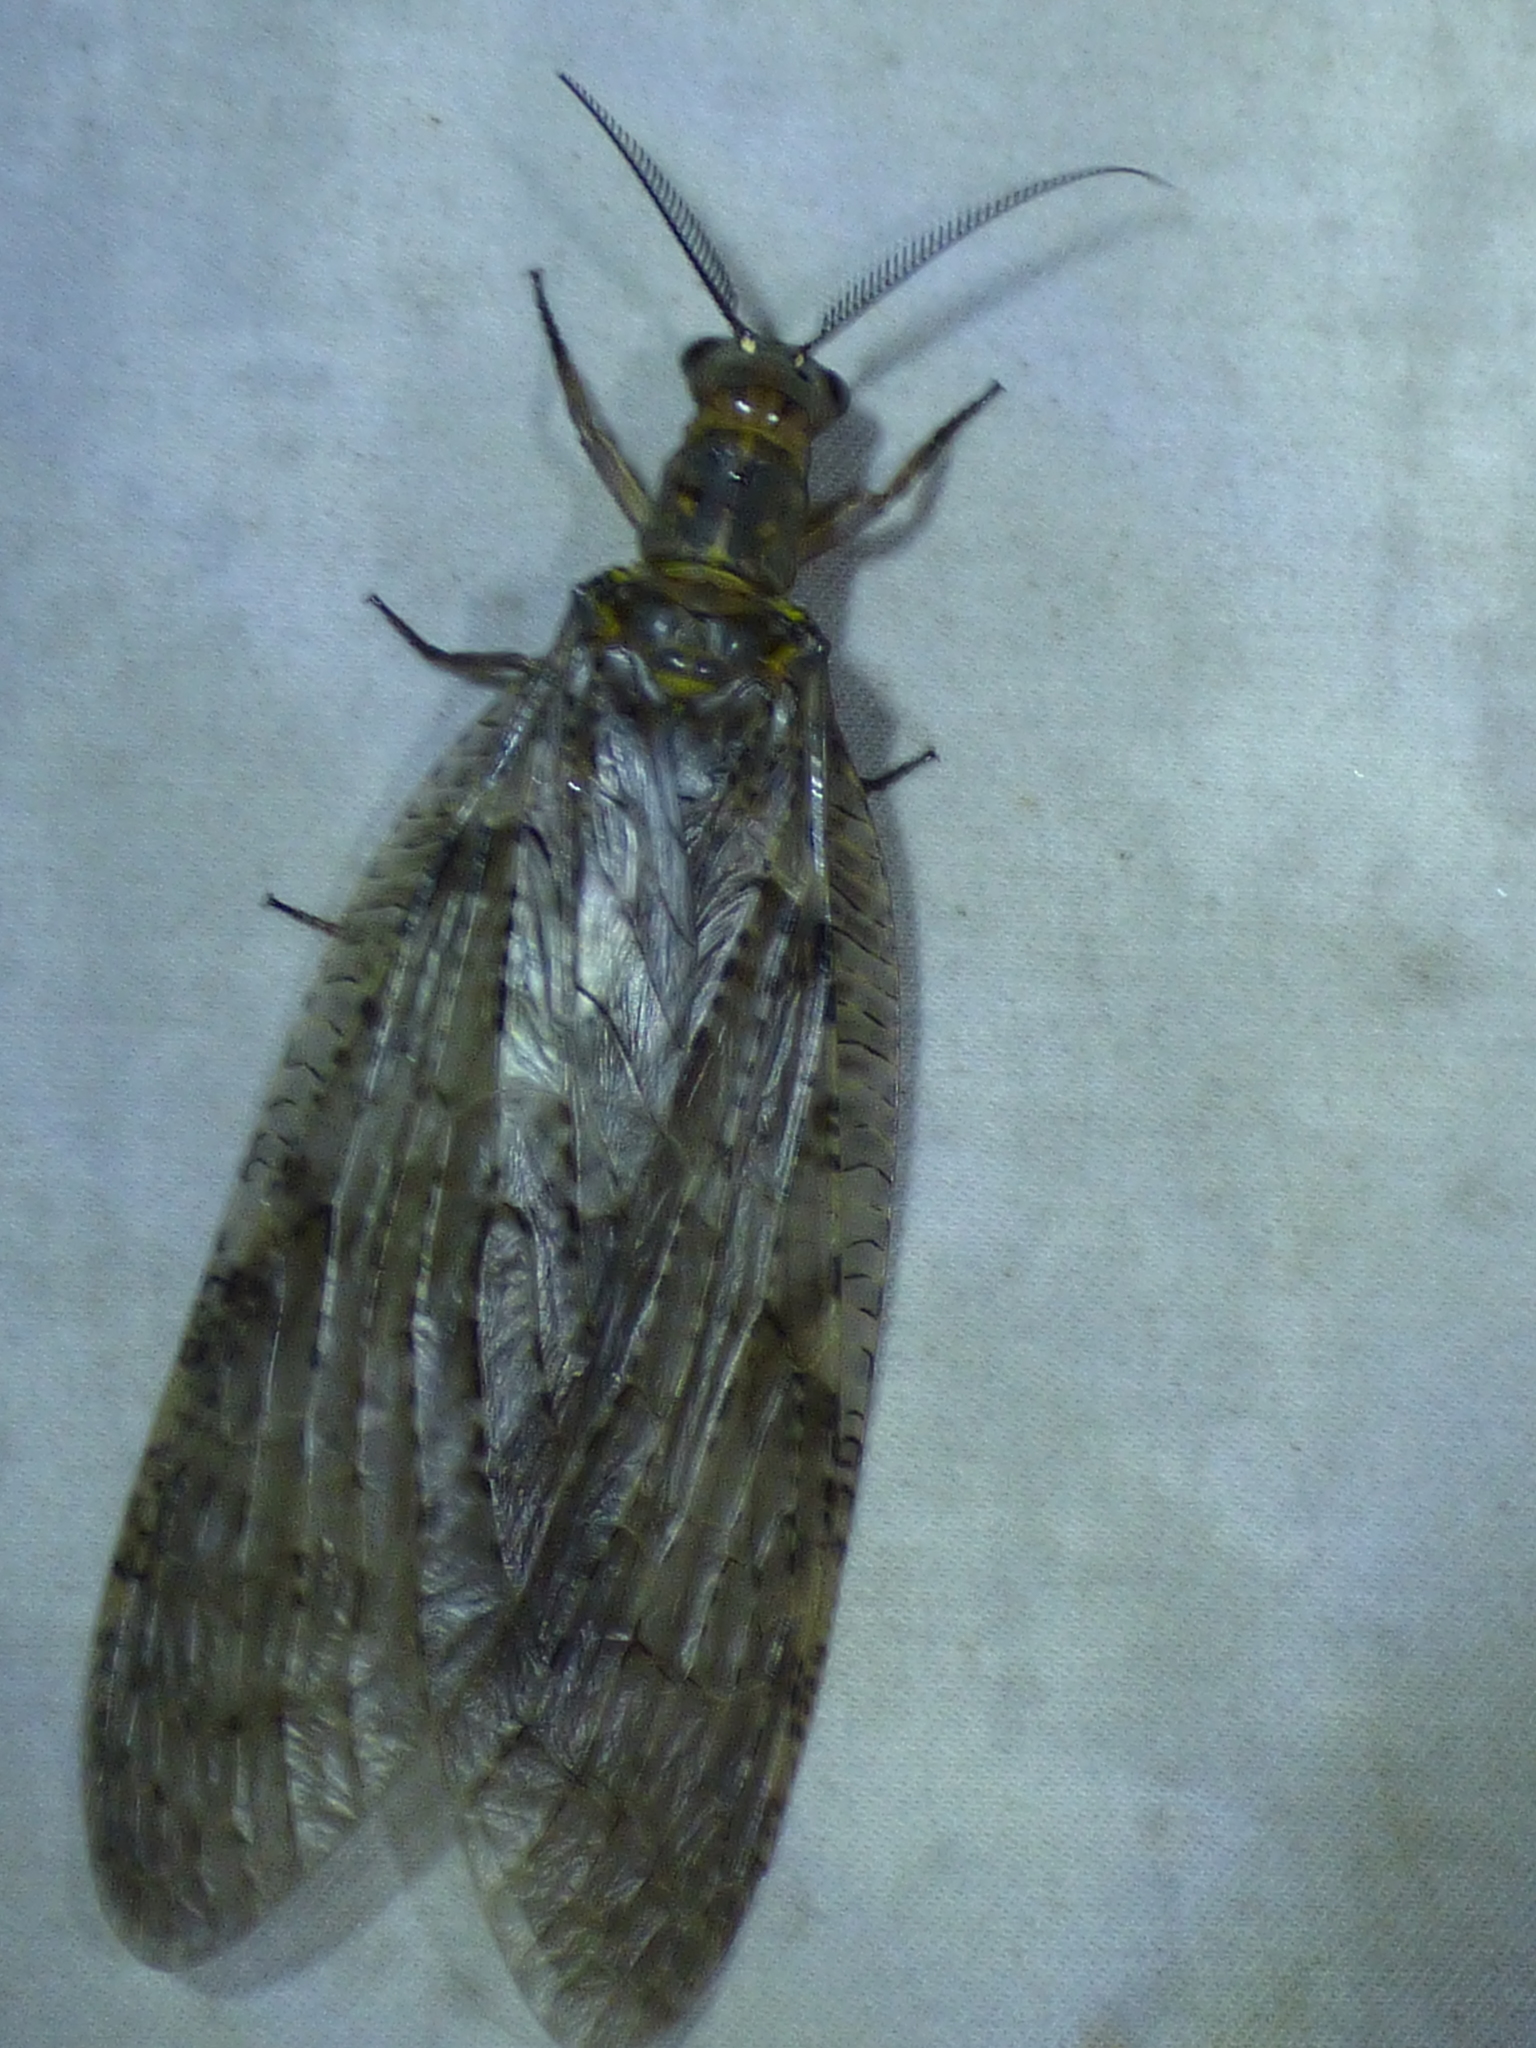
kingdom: Animalia
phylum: Arthropoda
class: Insecta
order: Megaloptera
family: Corydalidae
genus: Chauliodes
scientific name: Chauliodes pectinicornis
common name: Summer fishfly
